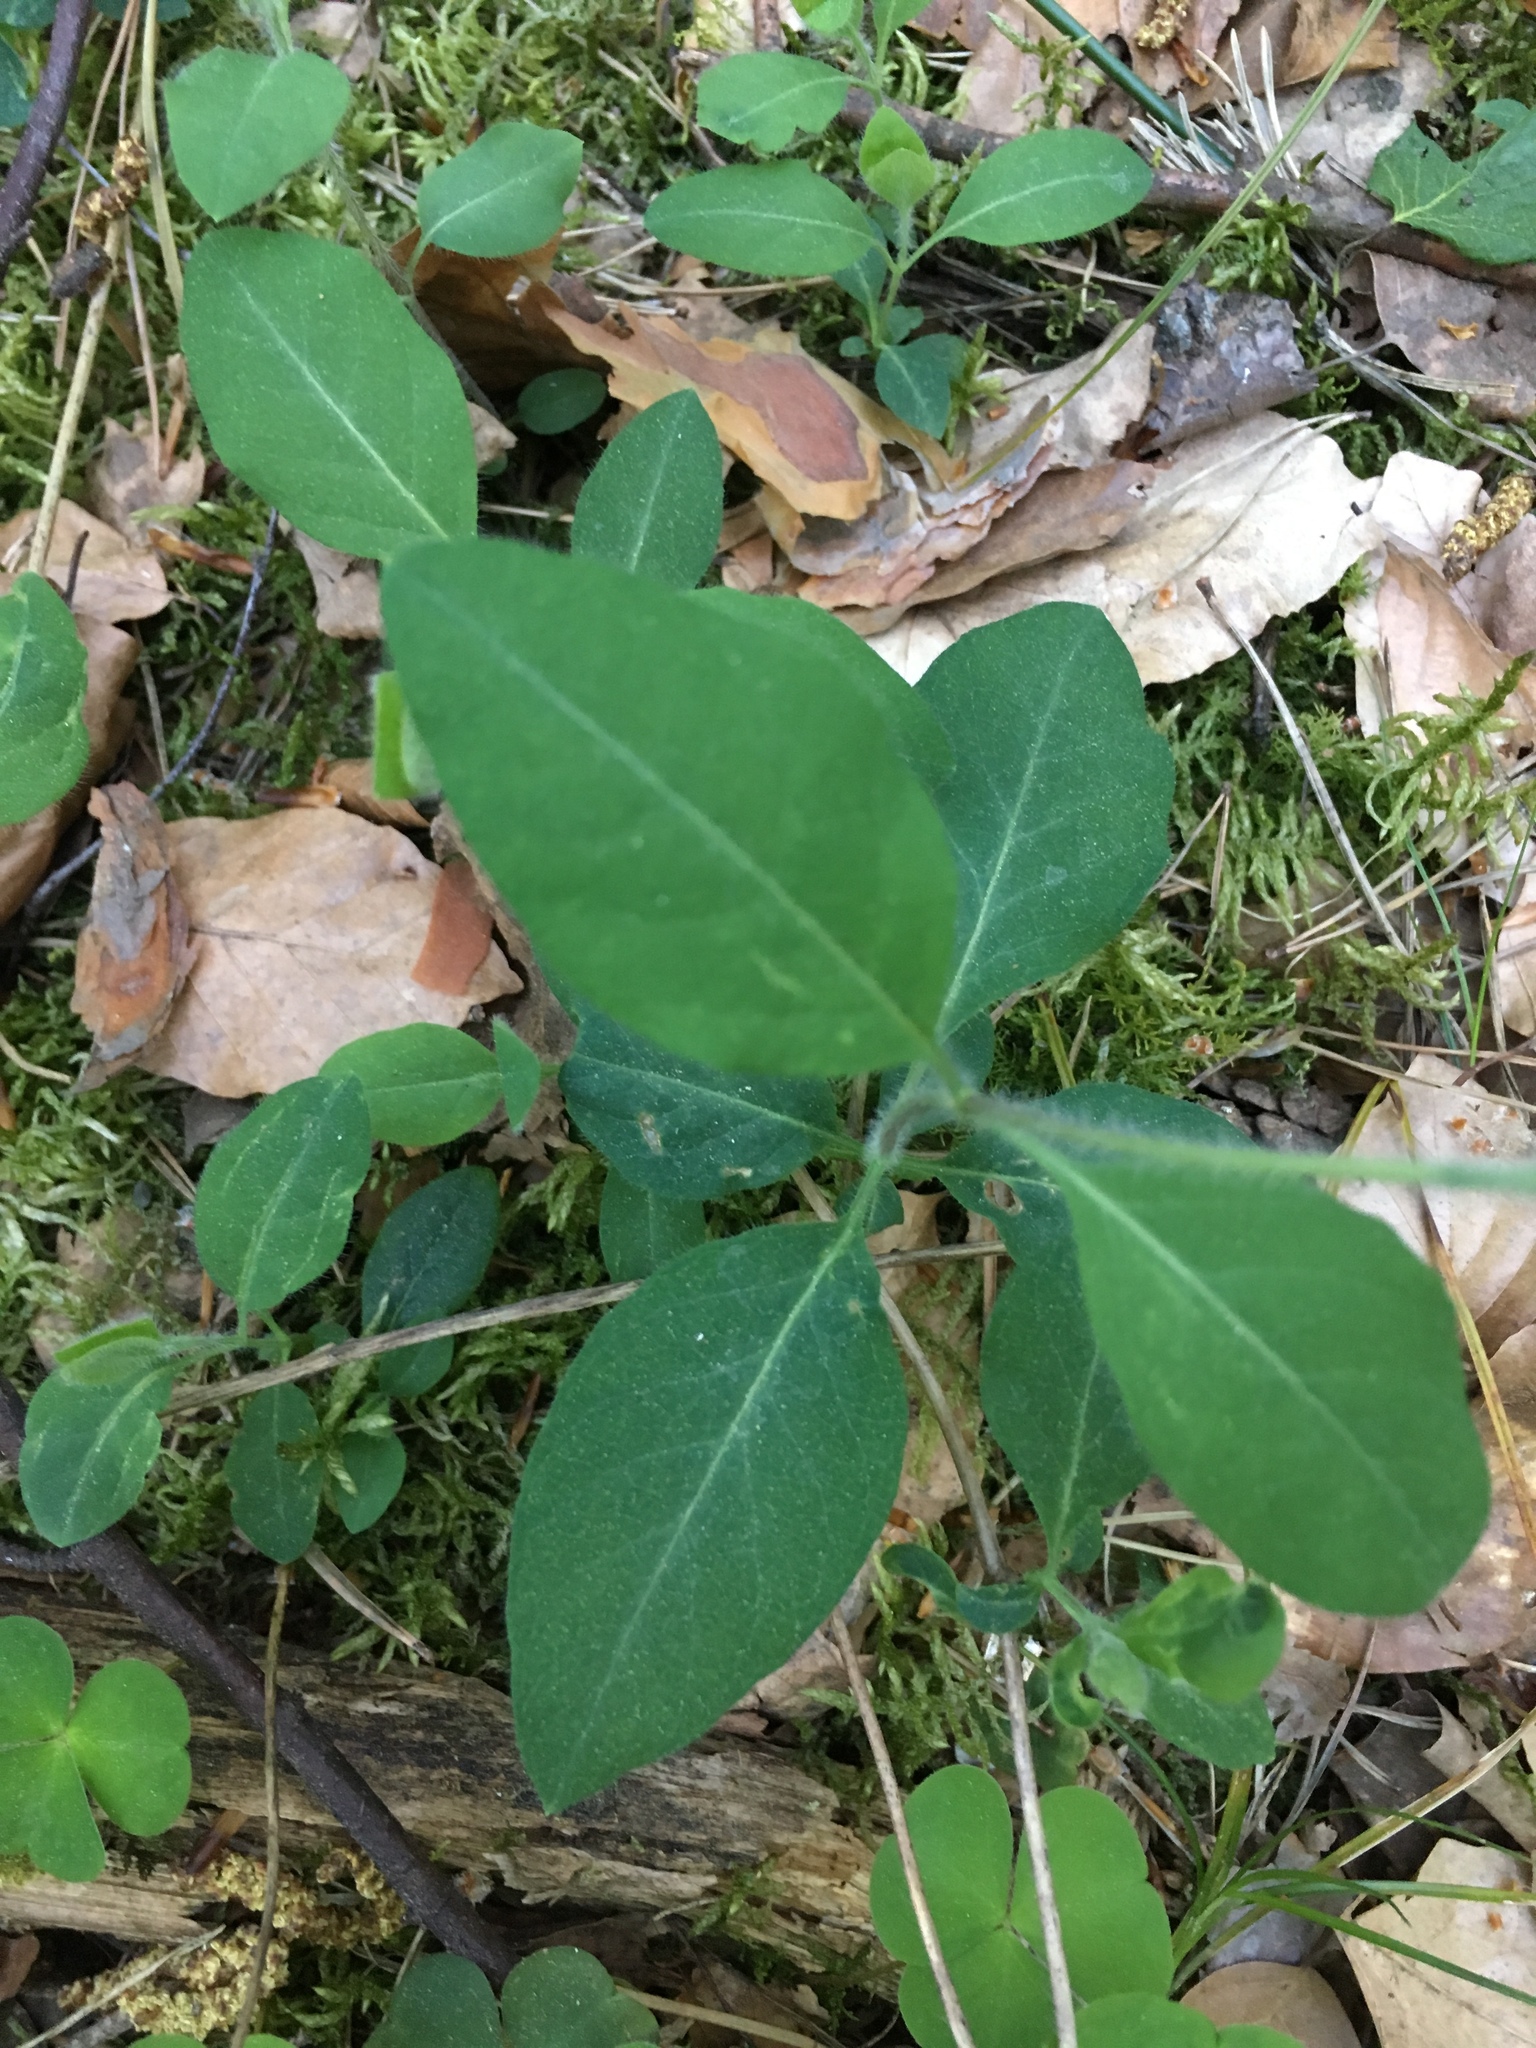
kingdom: Plantae
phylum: Tracheophyta
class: Magnoliopsida
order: Dipsacales
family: Caprifoliaceae
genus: Lonicera
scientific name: Lonicera periclymenum
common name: European honeysuckle
